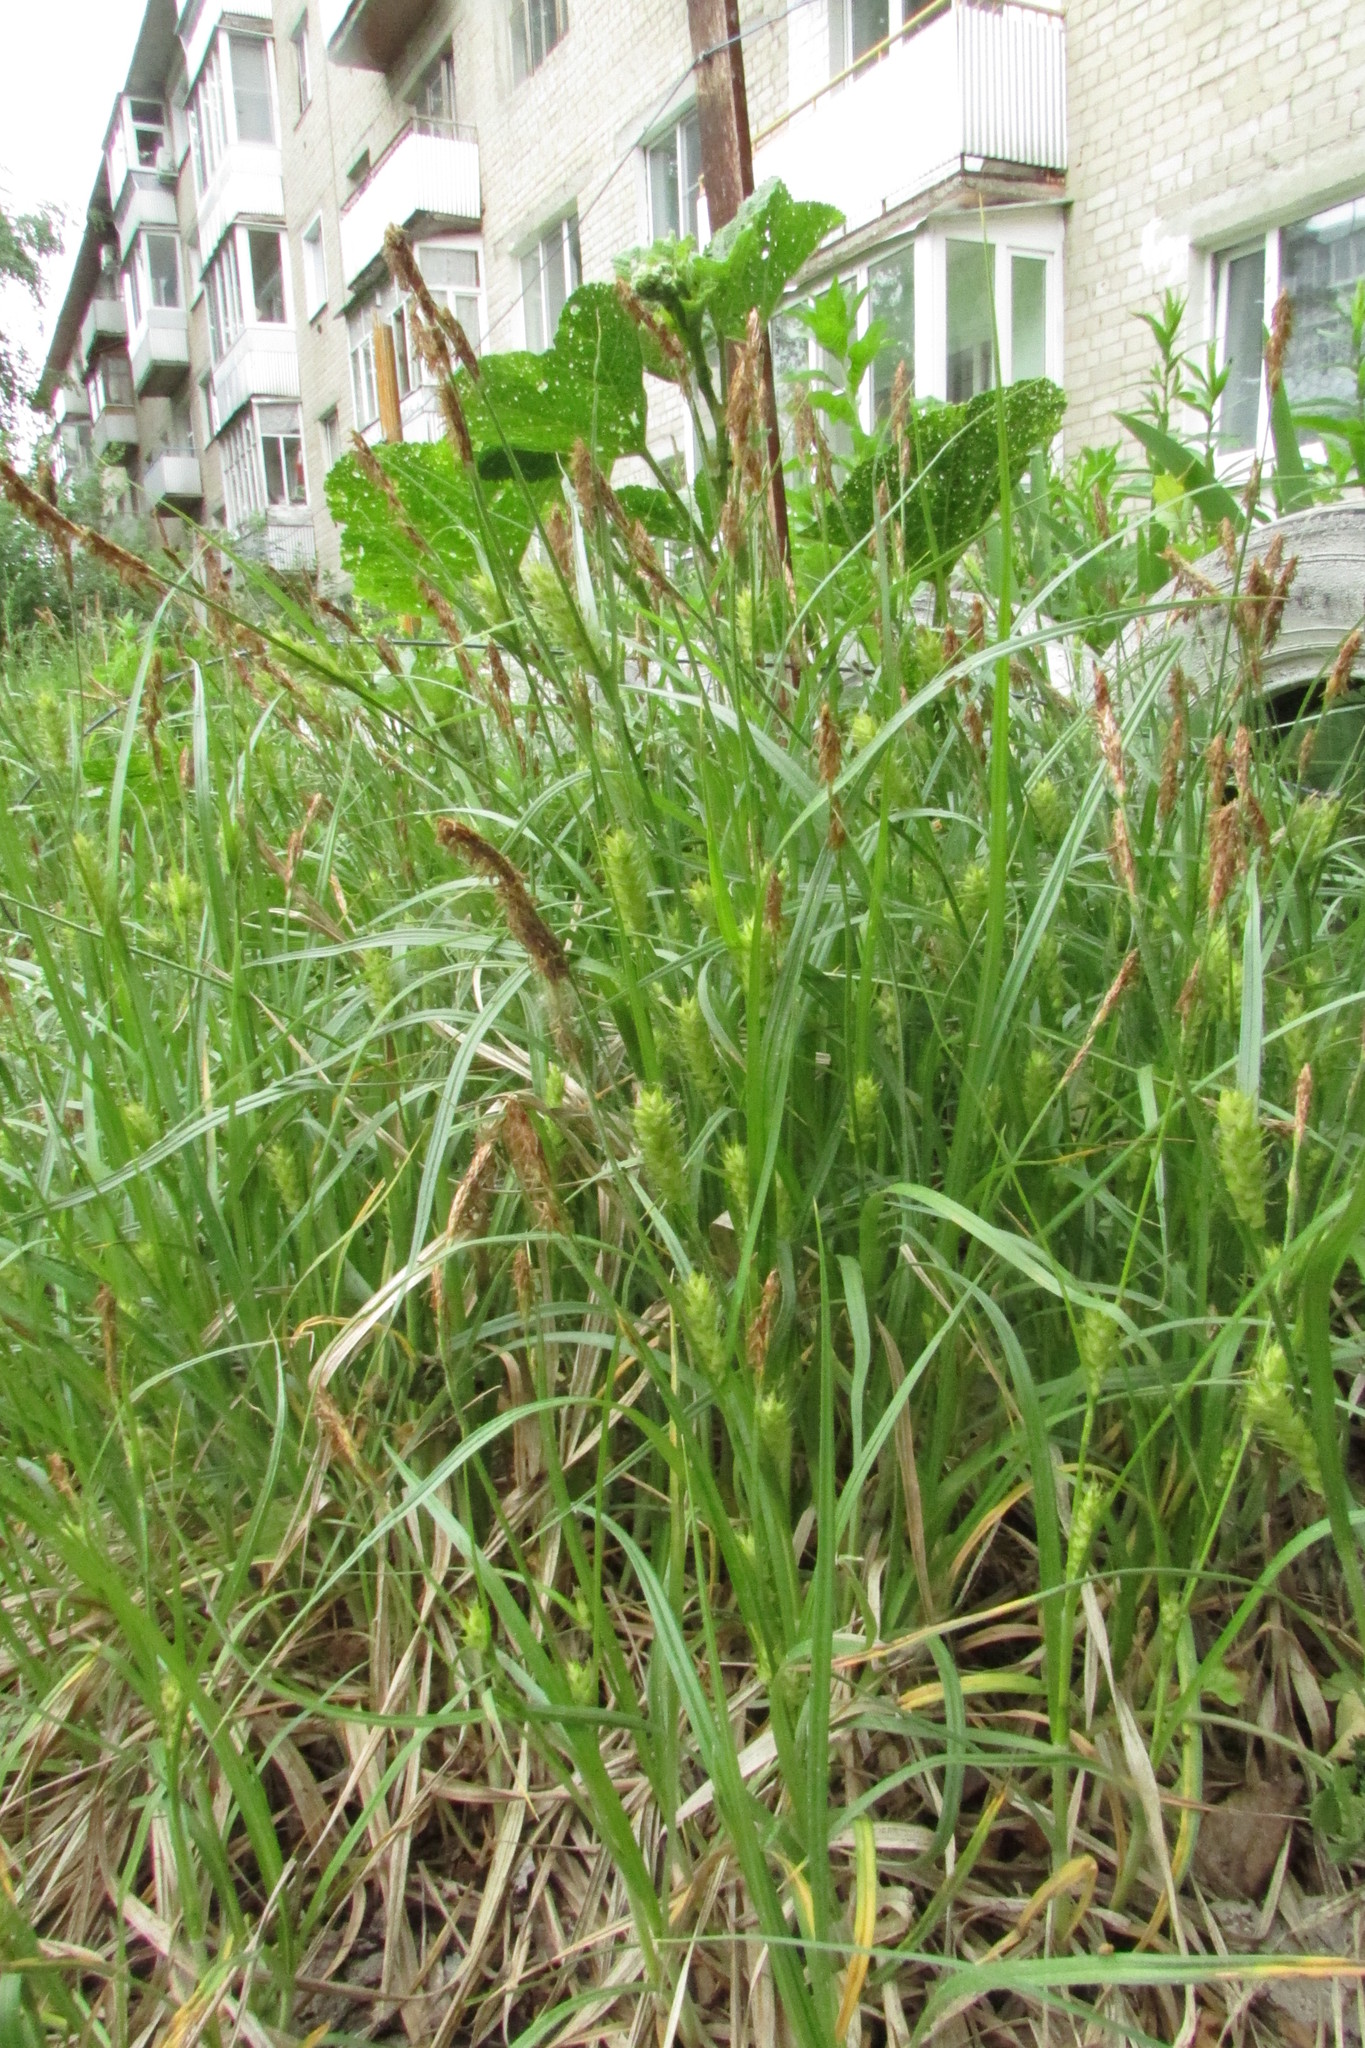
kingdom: Plantae
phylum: Tracheophyta
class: Liliopsida
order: Poales
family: Cyperaceae
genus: Carex
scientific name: Carex hirta
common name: Hairy sedge
